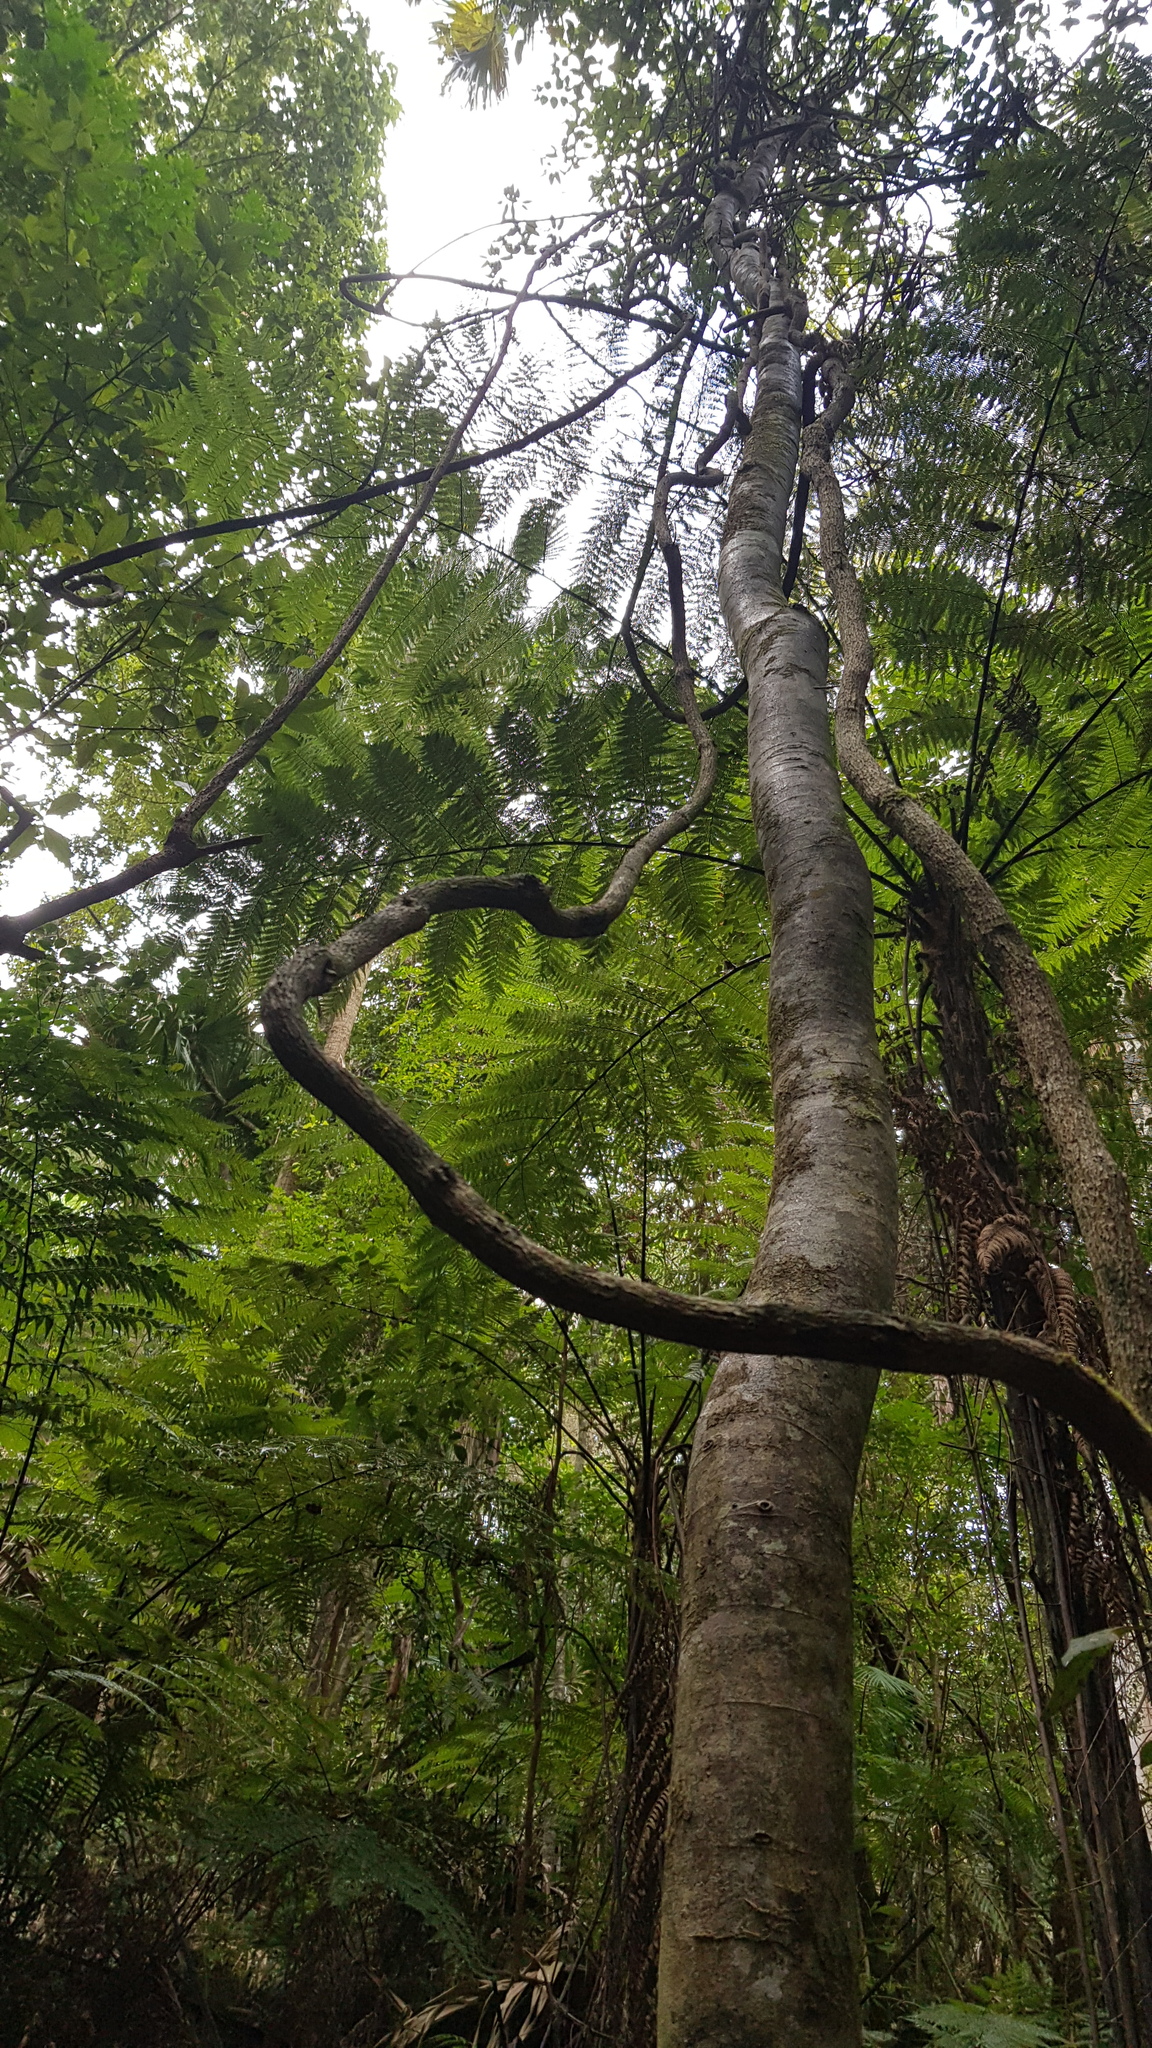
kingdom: Fungi
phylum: Basidiomycota
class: Agaricomycetes
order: Agaricales
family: Clavariaceae
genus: Clavaria
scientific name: Clavaria zollingeri
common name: Violet coral
